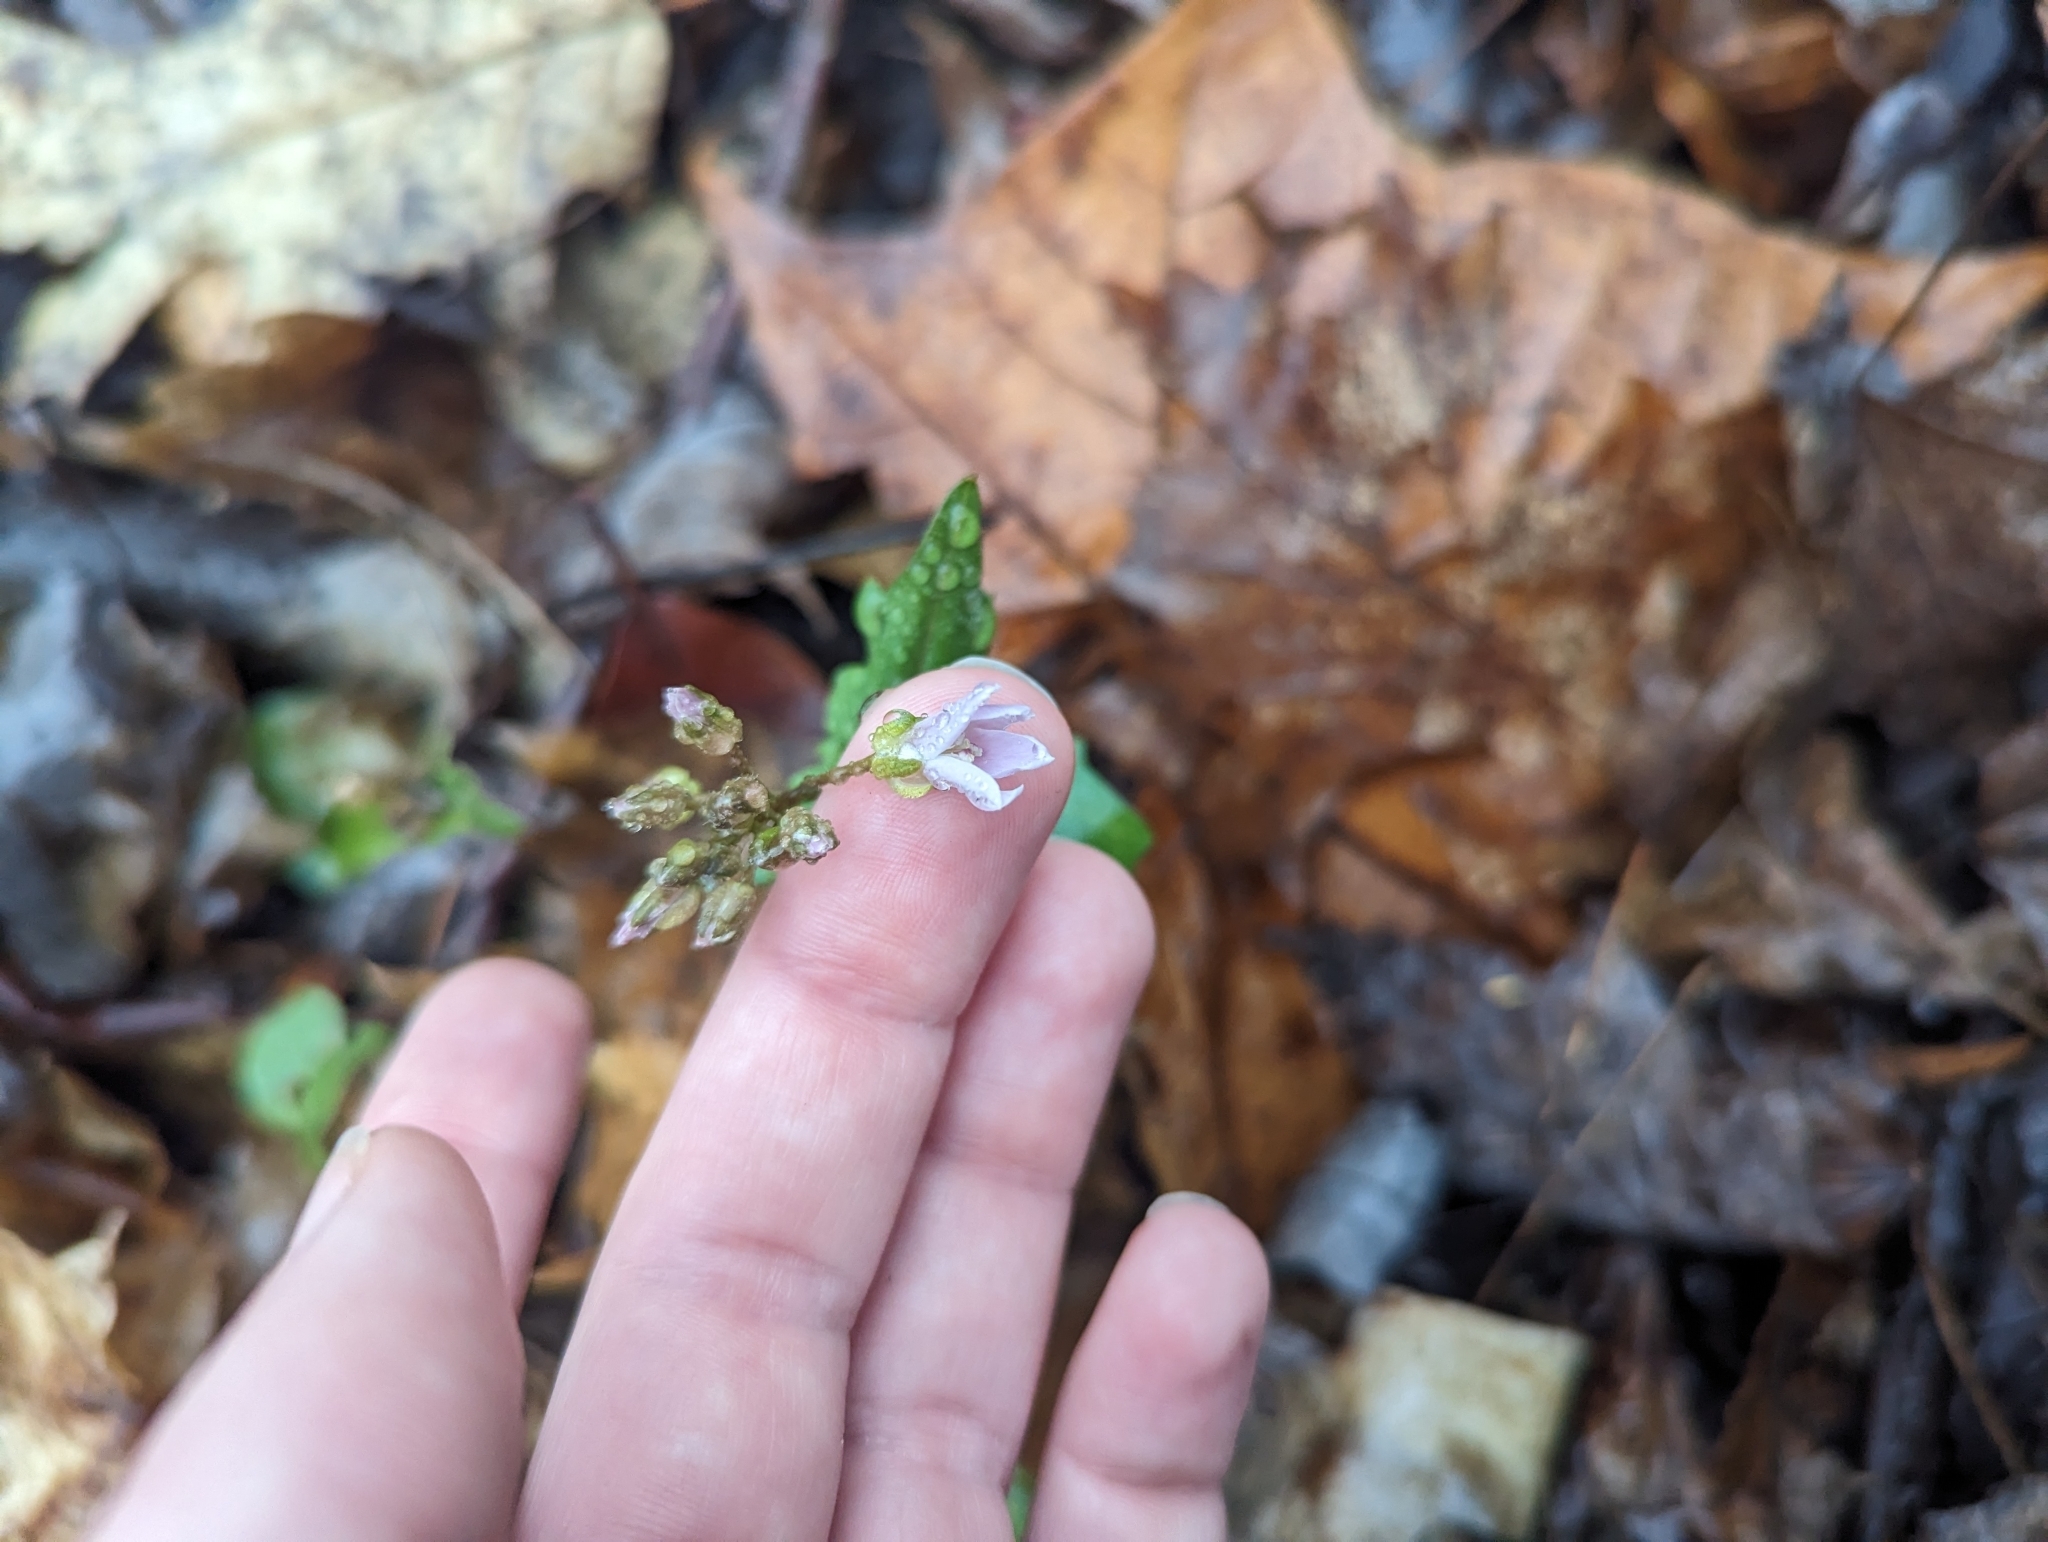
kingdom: Plantae
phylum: Tracheophyta
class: Magnoliopsida
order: Brassicales
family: Brassicaceae
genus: Cardamine
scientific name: Cardamine douglassii
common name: Purple cress
